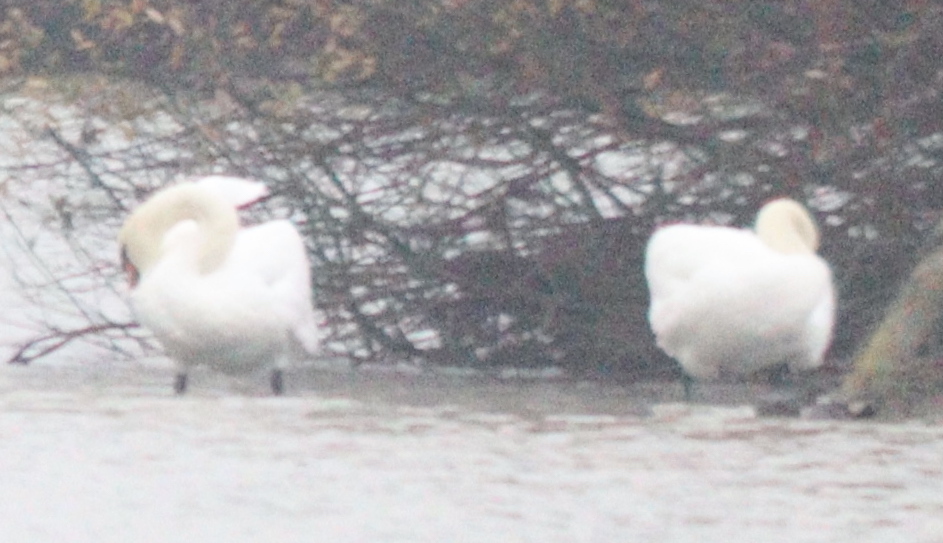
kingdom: Animalia
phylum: Chordata
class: Aves
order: Anseriformes
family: Anatidae
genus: Cygnus
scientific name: Cygnus olor
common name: Mute swan
